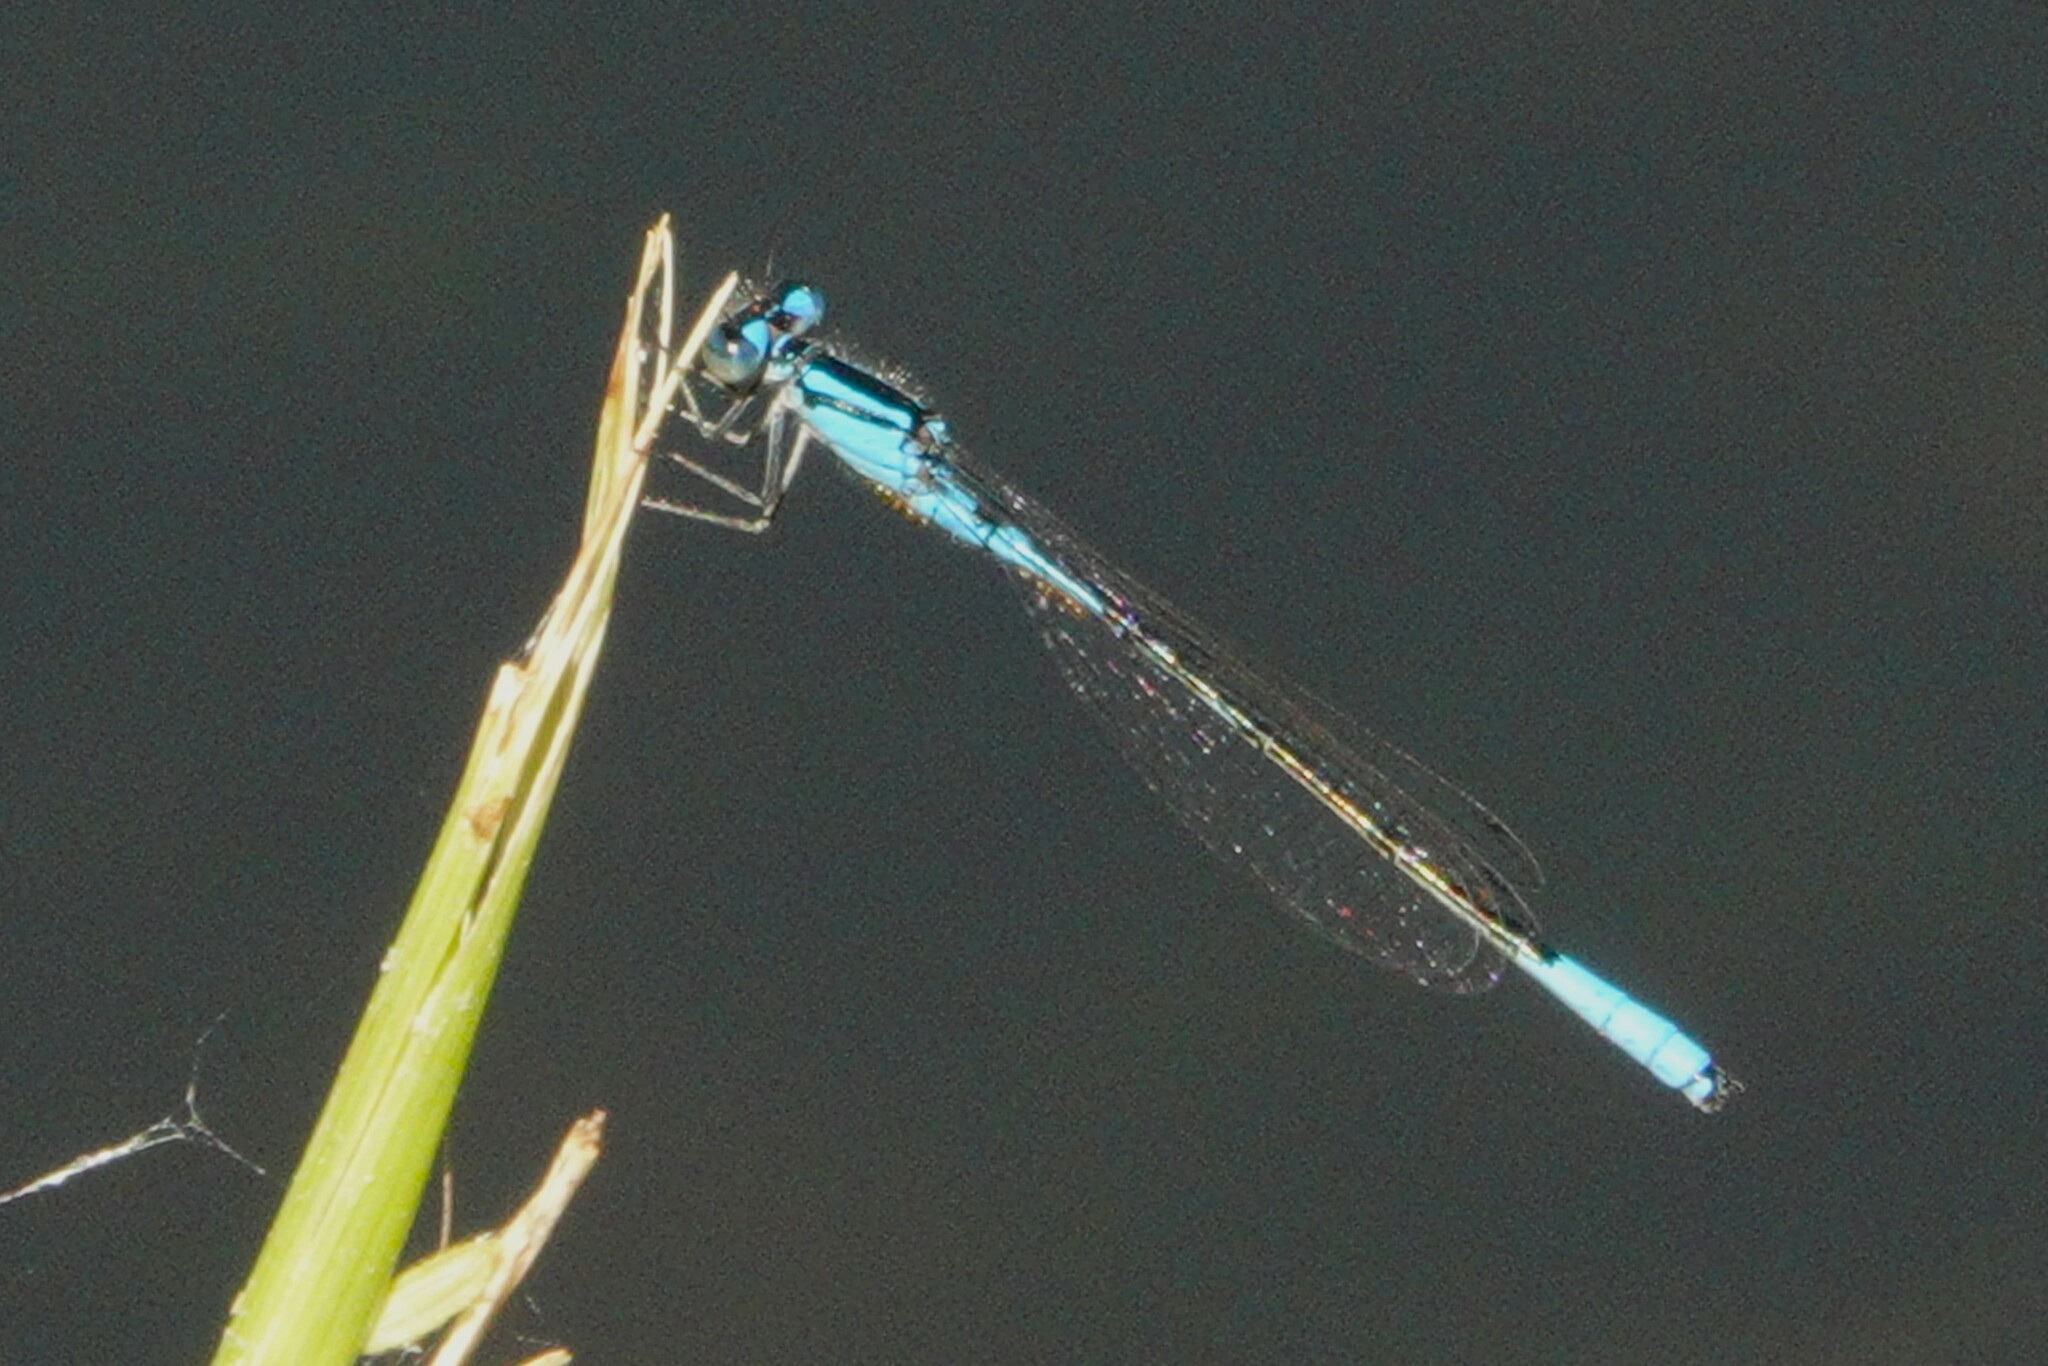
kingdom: Animalia
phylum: Arthropoda
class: Insecta
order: Odonata
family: Coenagrionidae
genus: Enallagma
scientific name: Enallagma aspersum
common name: Azure bluet
